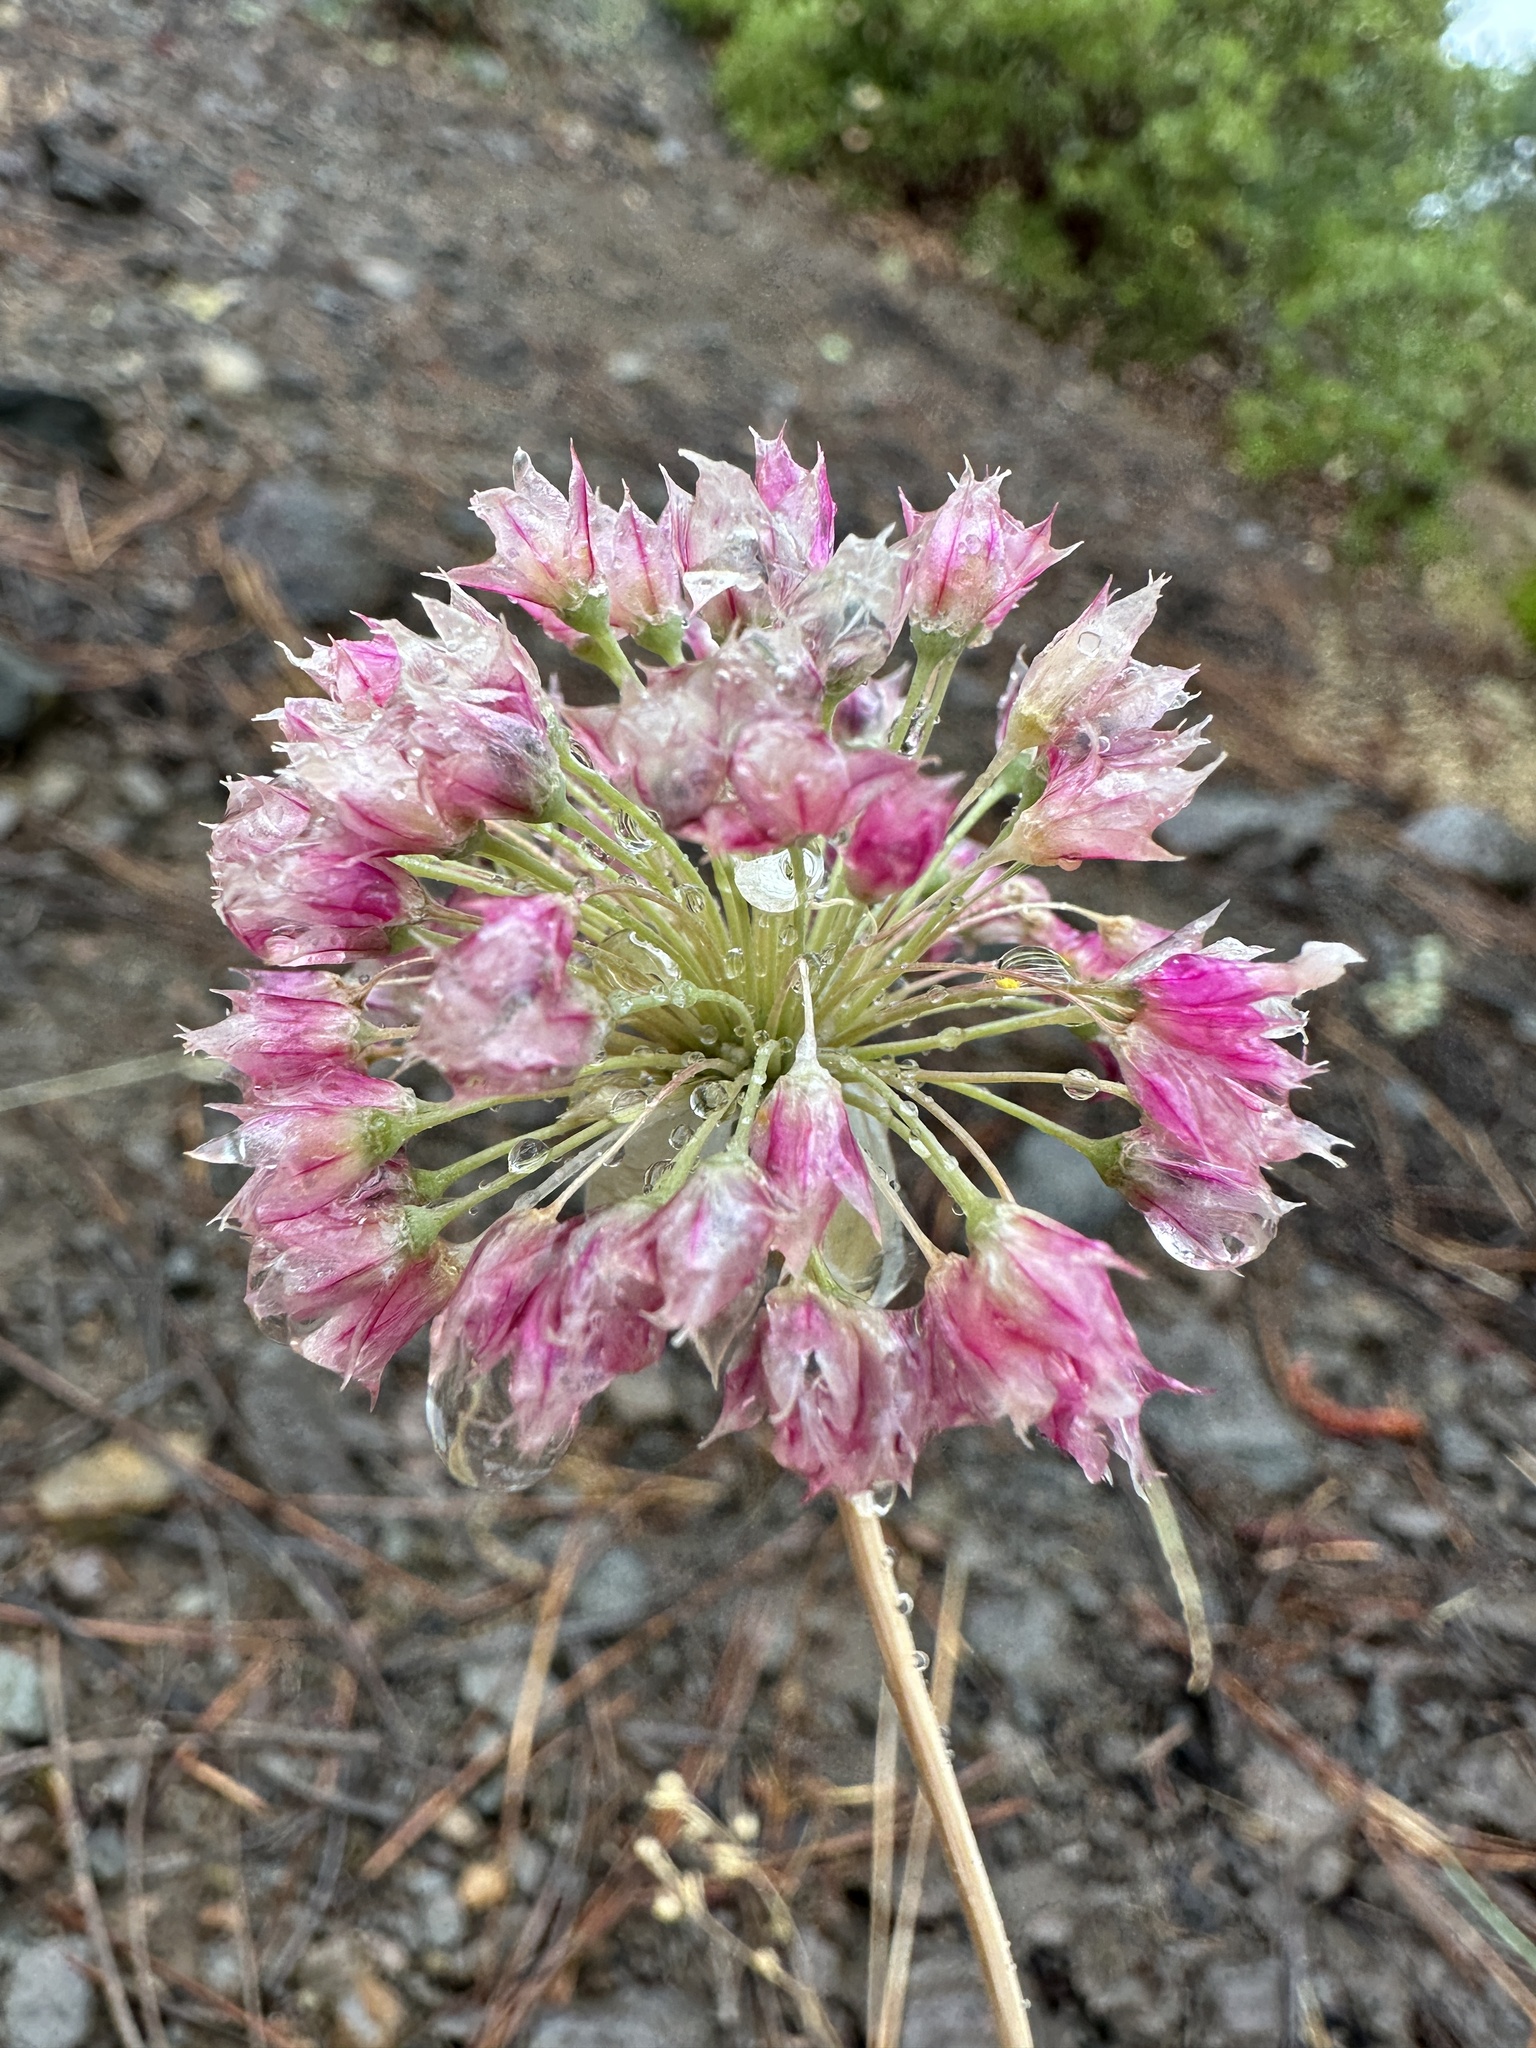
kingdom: Plantae
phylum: Tracheophyta
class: Liliopsida
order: Asparagales
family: Amaryllidaceae
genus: Allium
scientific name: Allium sanbornii
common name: Sanborn's onion
